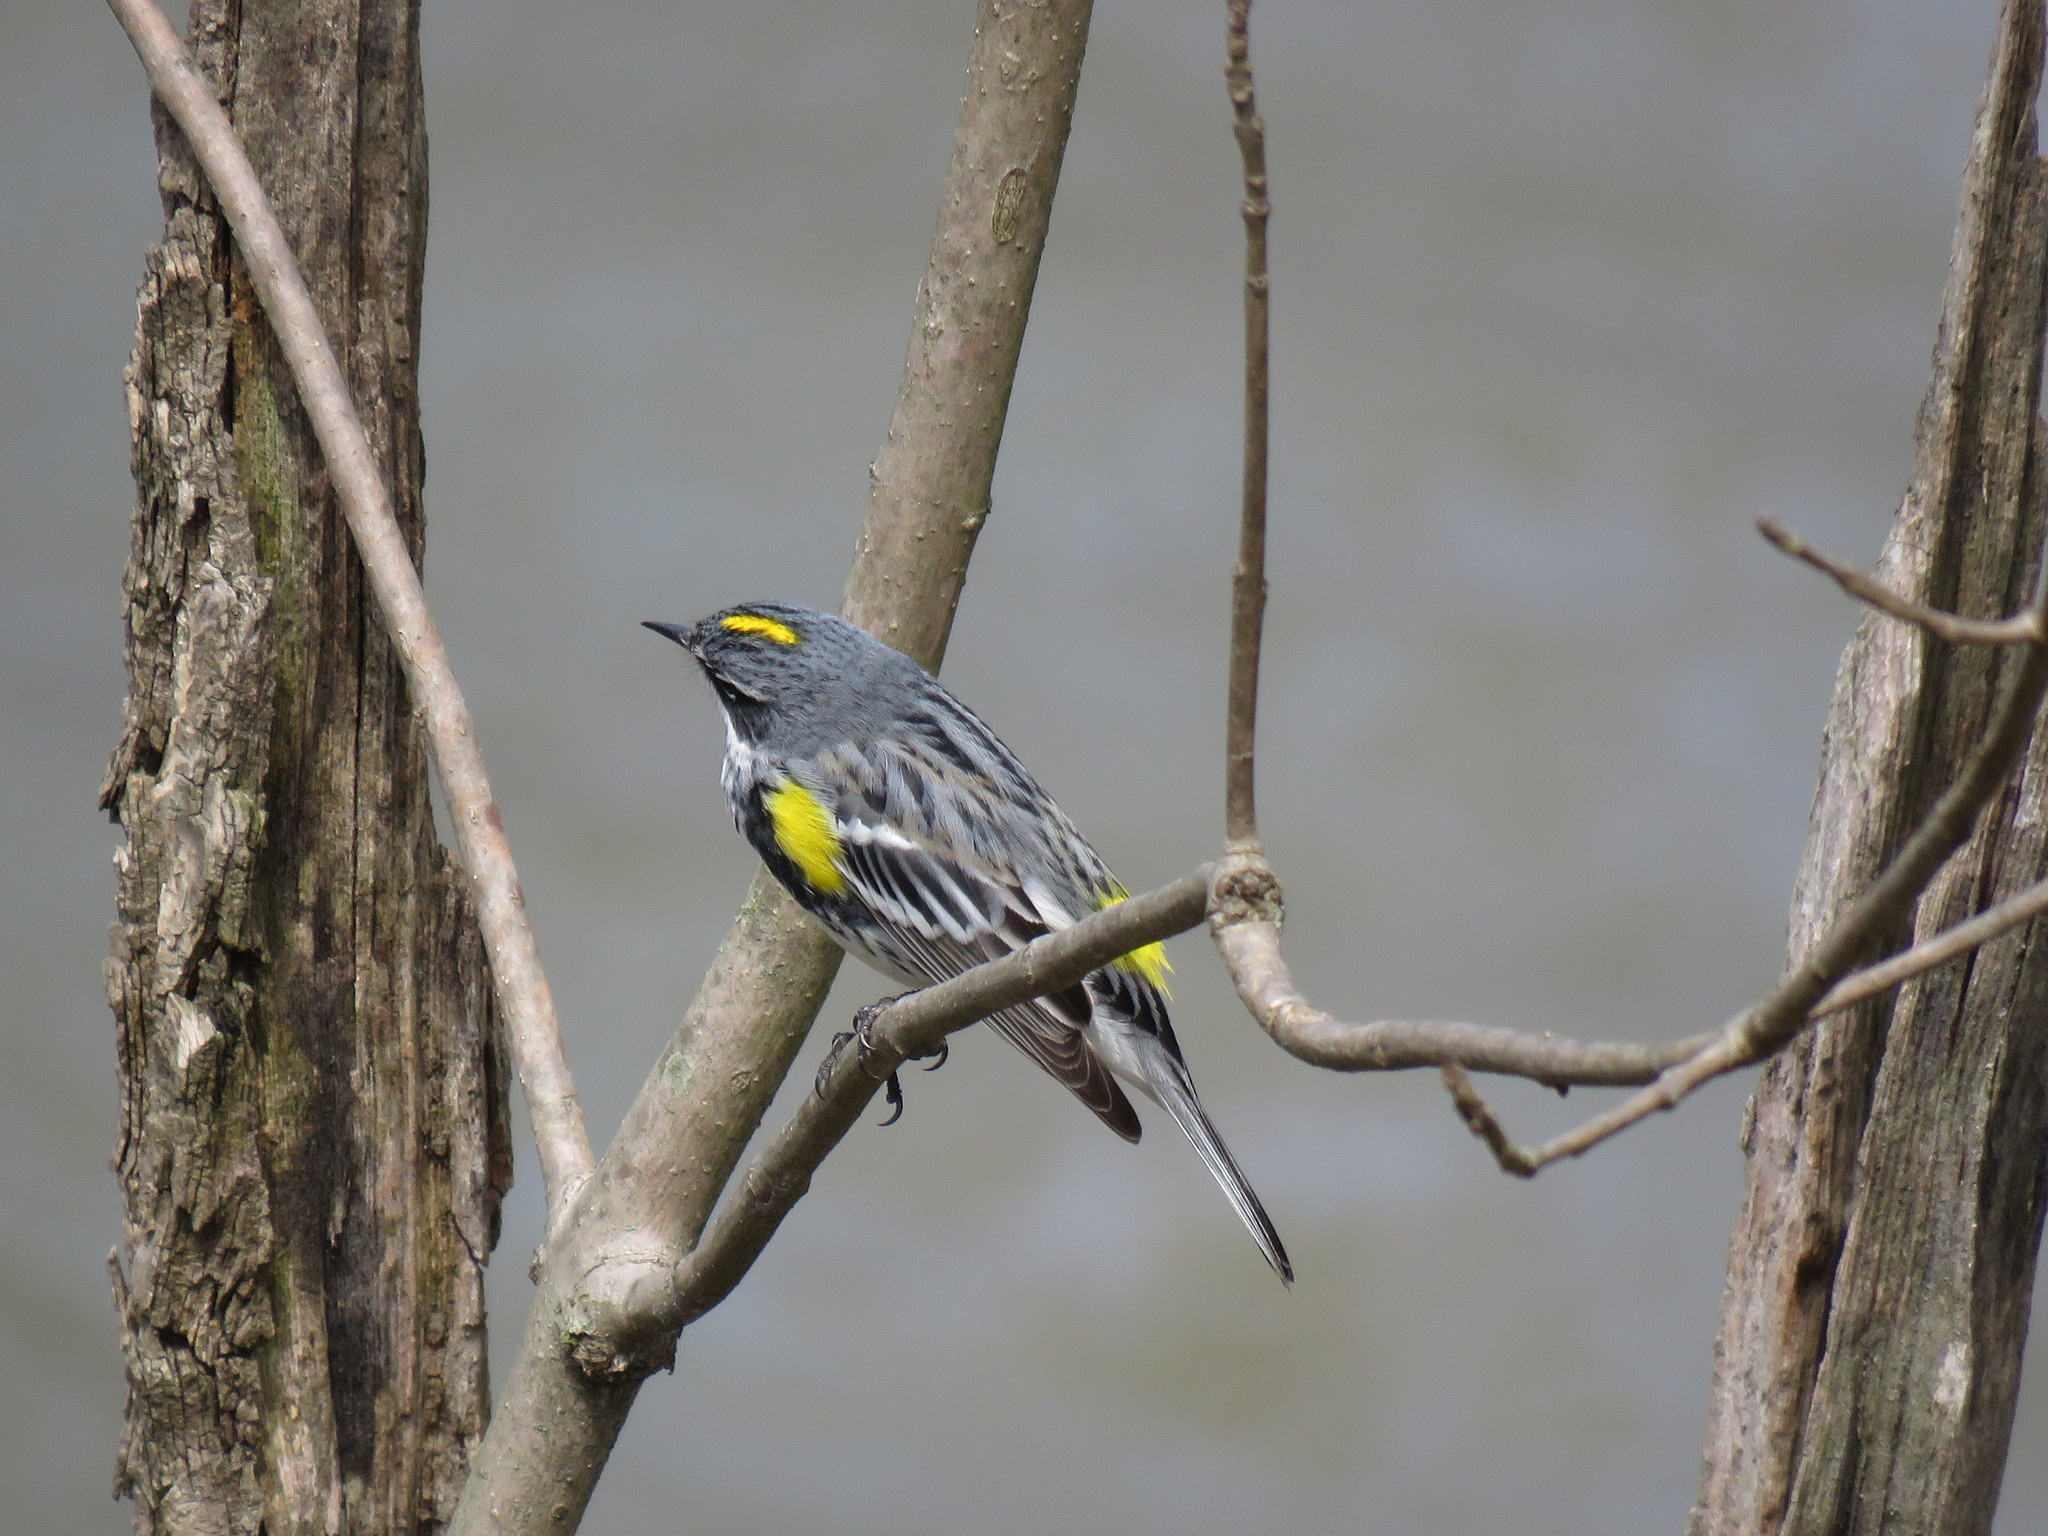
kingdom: Animalia
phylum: Chordata
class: Aves
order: Passeriformes
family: Parulidae
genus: Setophaga
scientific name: Setophaga coronata
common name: Myrtle warbler
